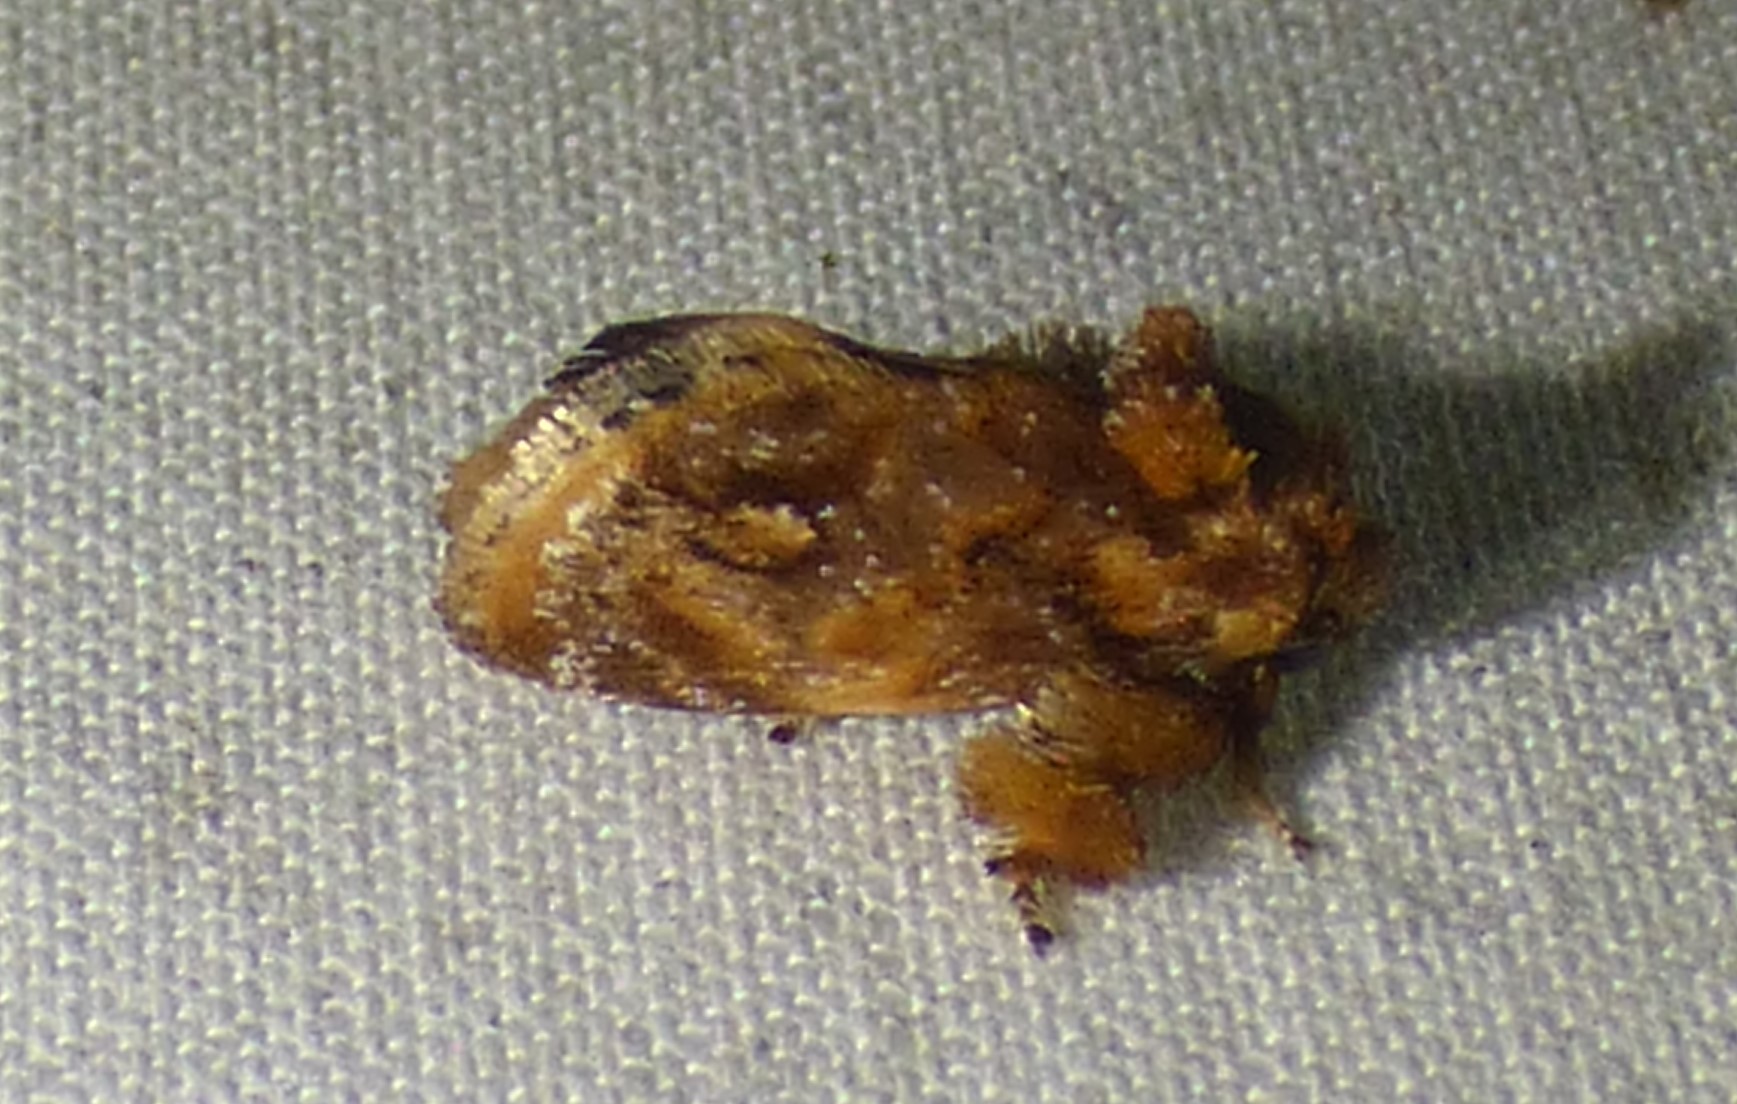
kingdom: Animalia
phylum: Arthropoda
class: Insecta
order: Lepidoptera
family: Limacodidae
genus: Isochaetes
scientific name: Isochaetes beutenmuelleri
